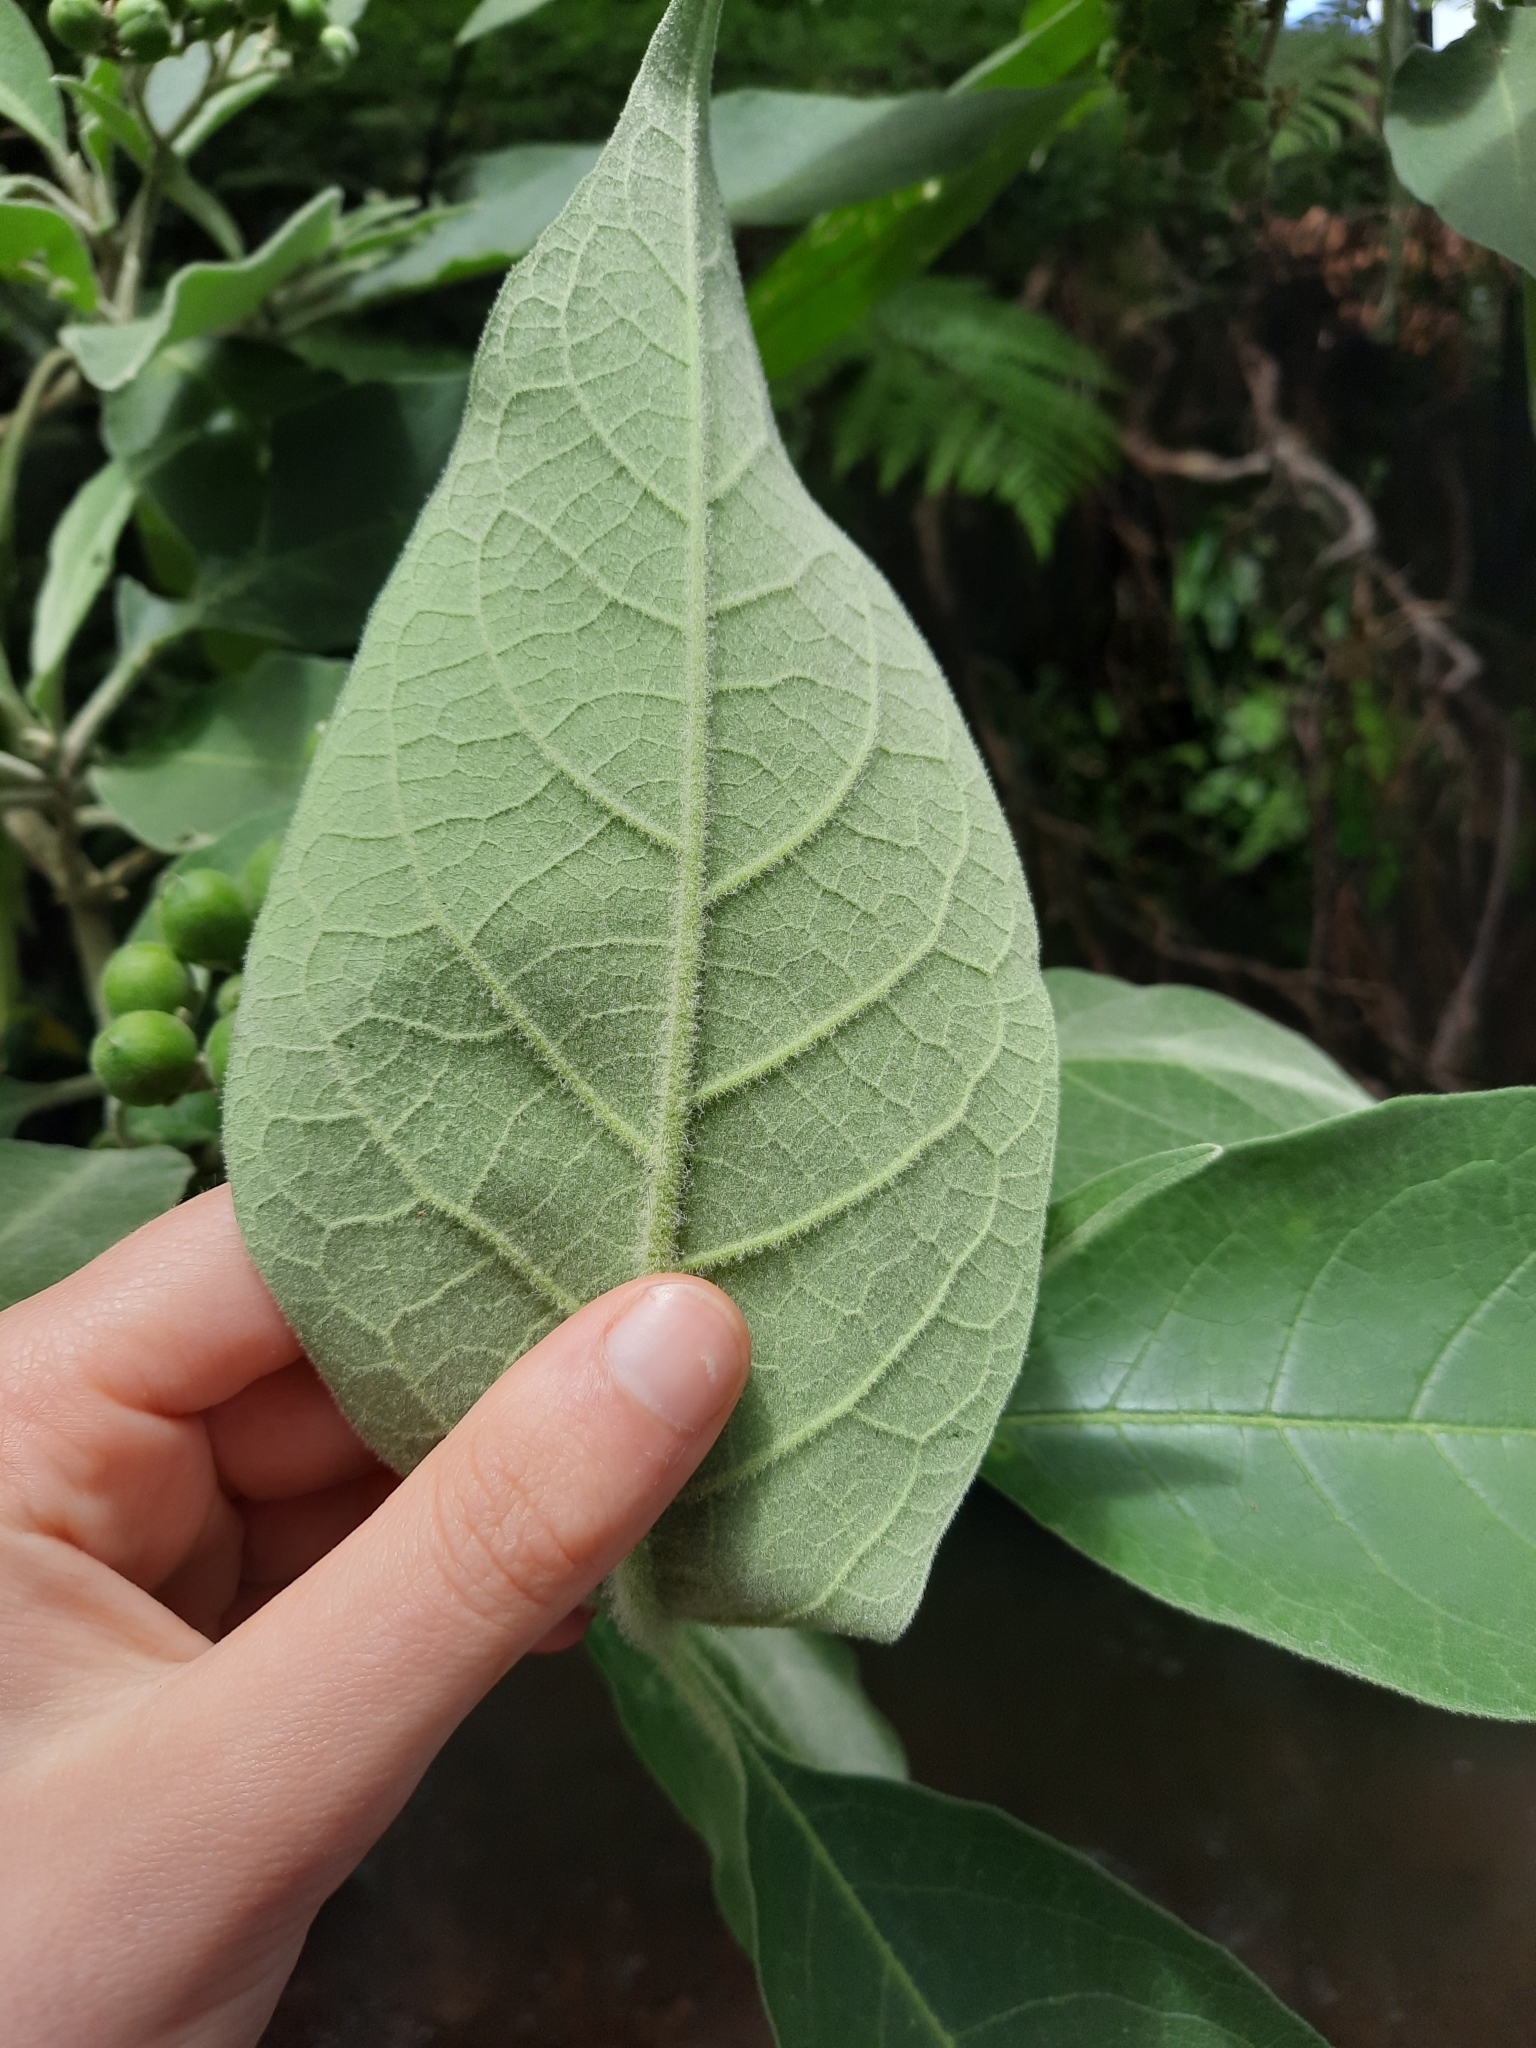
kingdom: Plantae
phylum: Tracheophyta
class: Magnoliopsida
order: Solanales
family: Solanaceae
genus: Solanum
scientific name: Solanum mauritianum
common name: Earleaf nightshade
